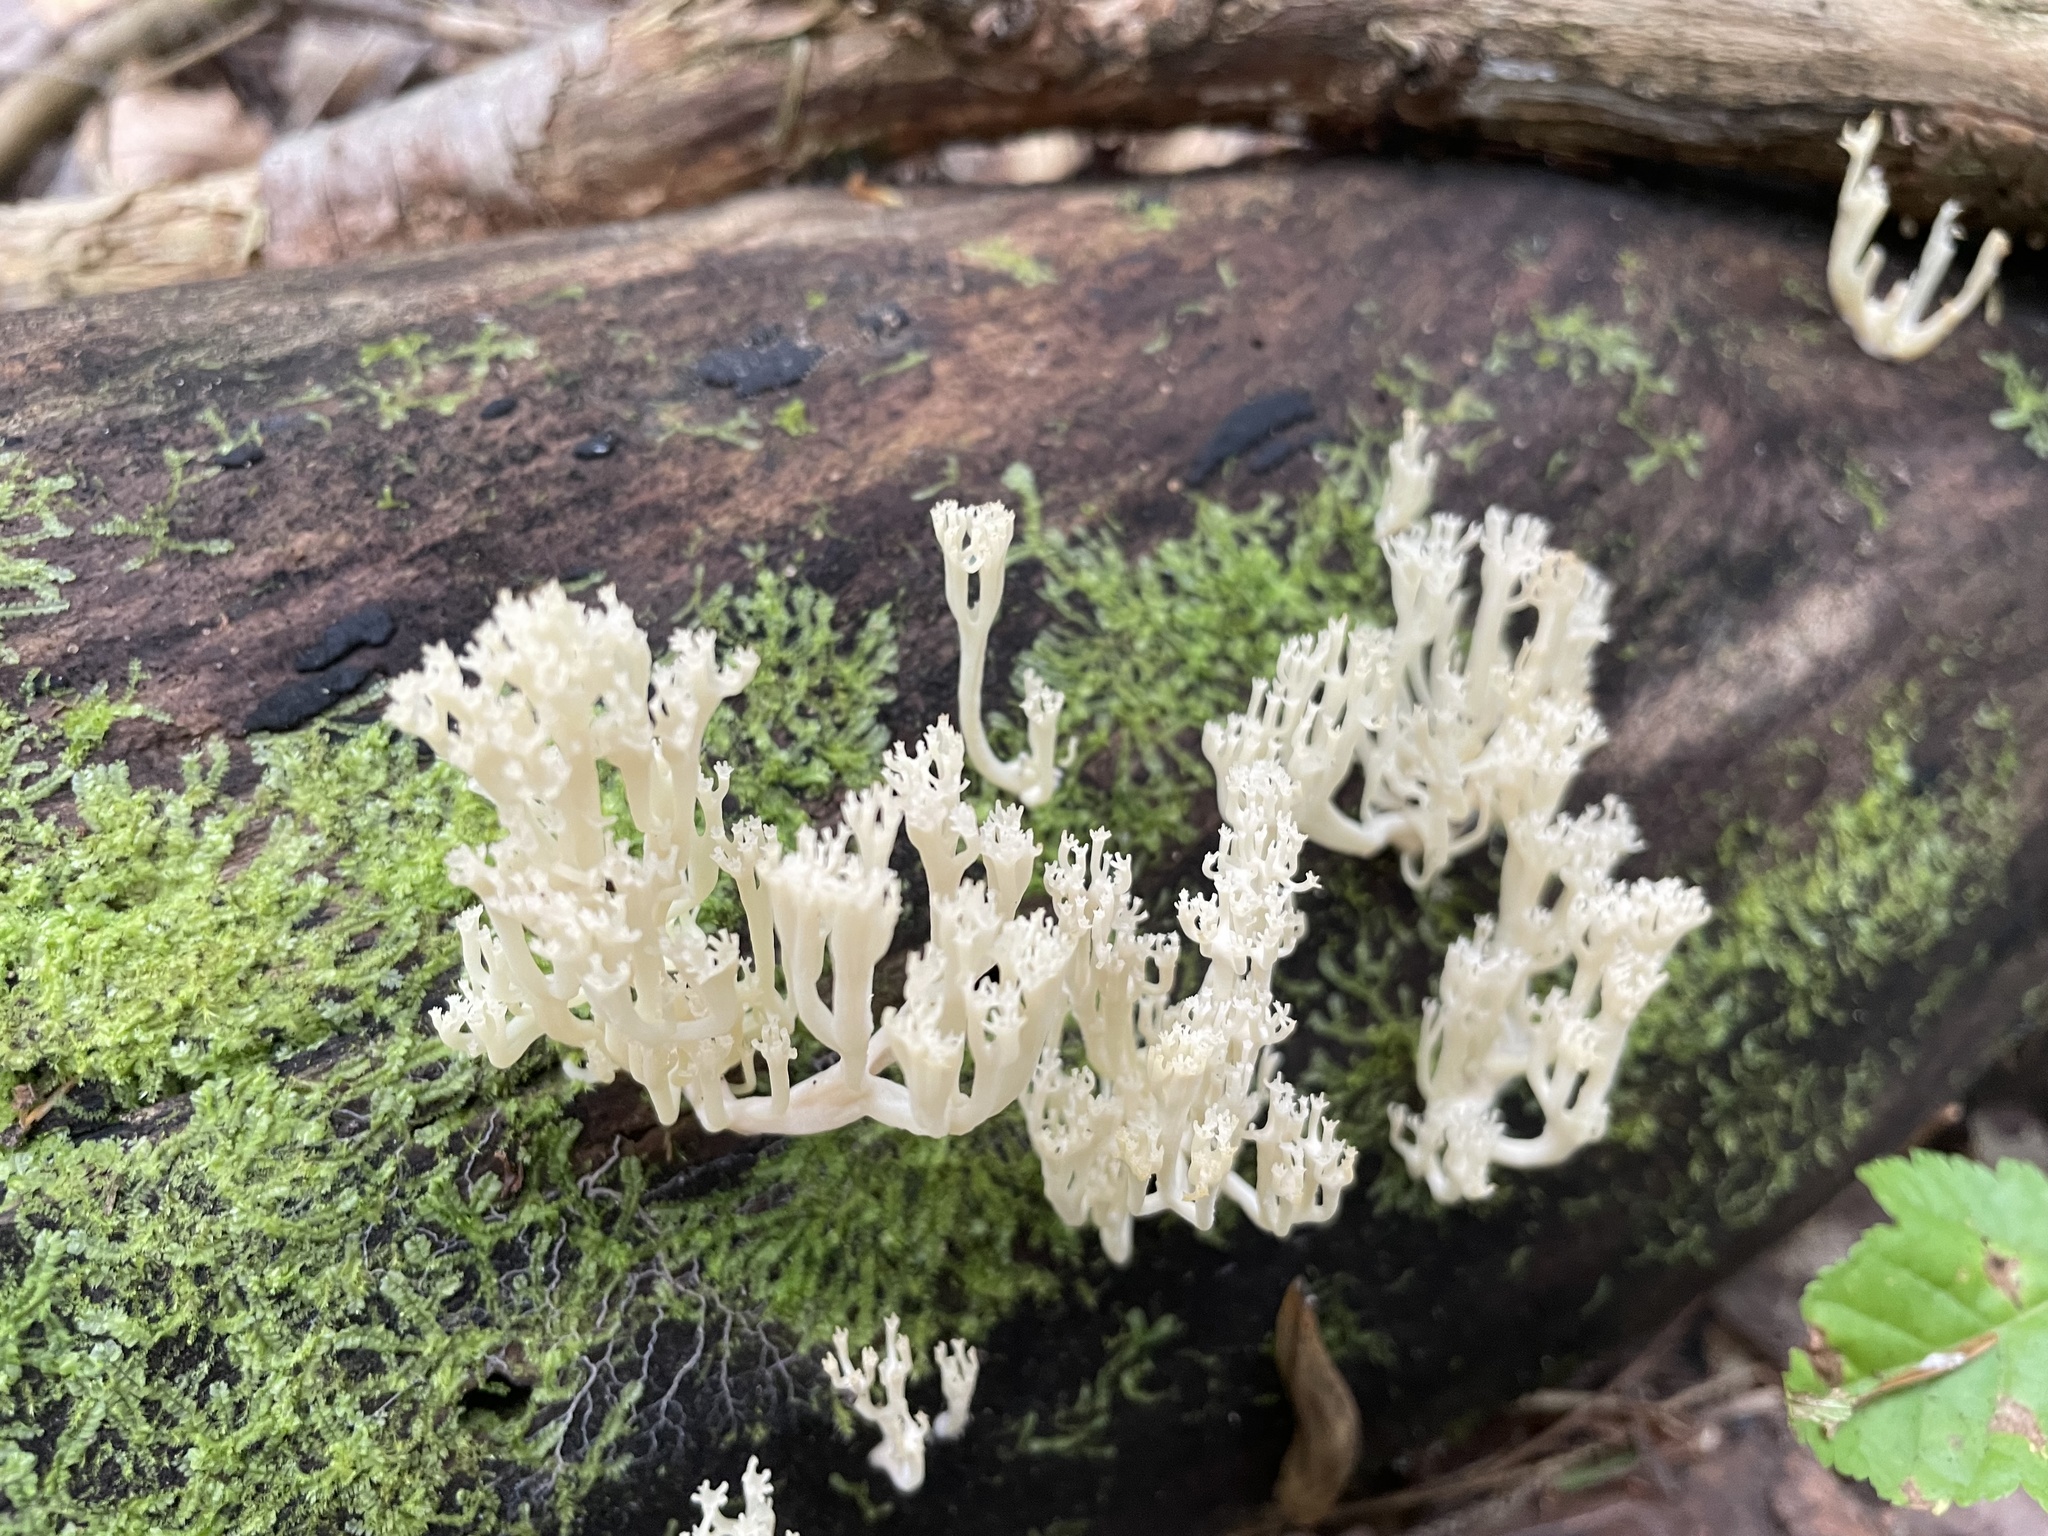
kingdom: Fungi
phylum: Basidiomycota
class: Agaricomycetes
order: Russulales
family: Auriscalpiaceae
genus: Artomyces
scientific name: Artomyces pyxidatus
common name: Crown-tipped coral fungus
